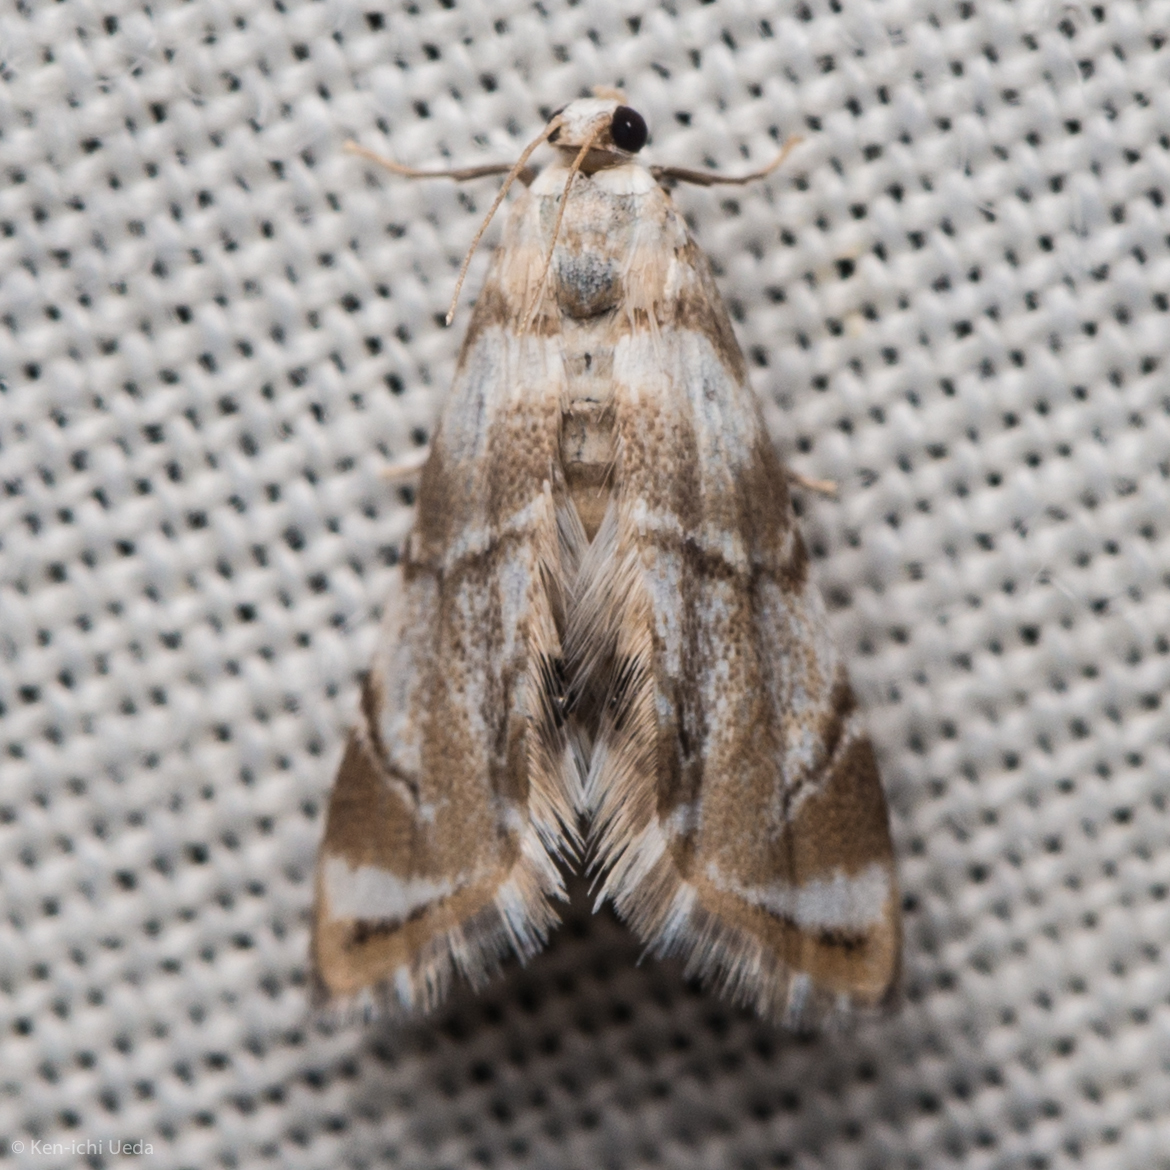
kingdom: Animalia
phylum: Arthropoda
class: Insecta
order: Lepidoptera
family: Crambidae
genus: Eoparargyractis
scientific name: Eoparargyractis plevie
